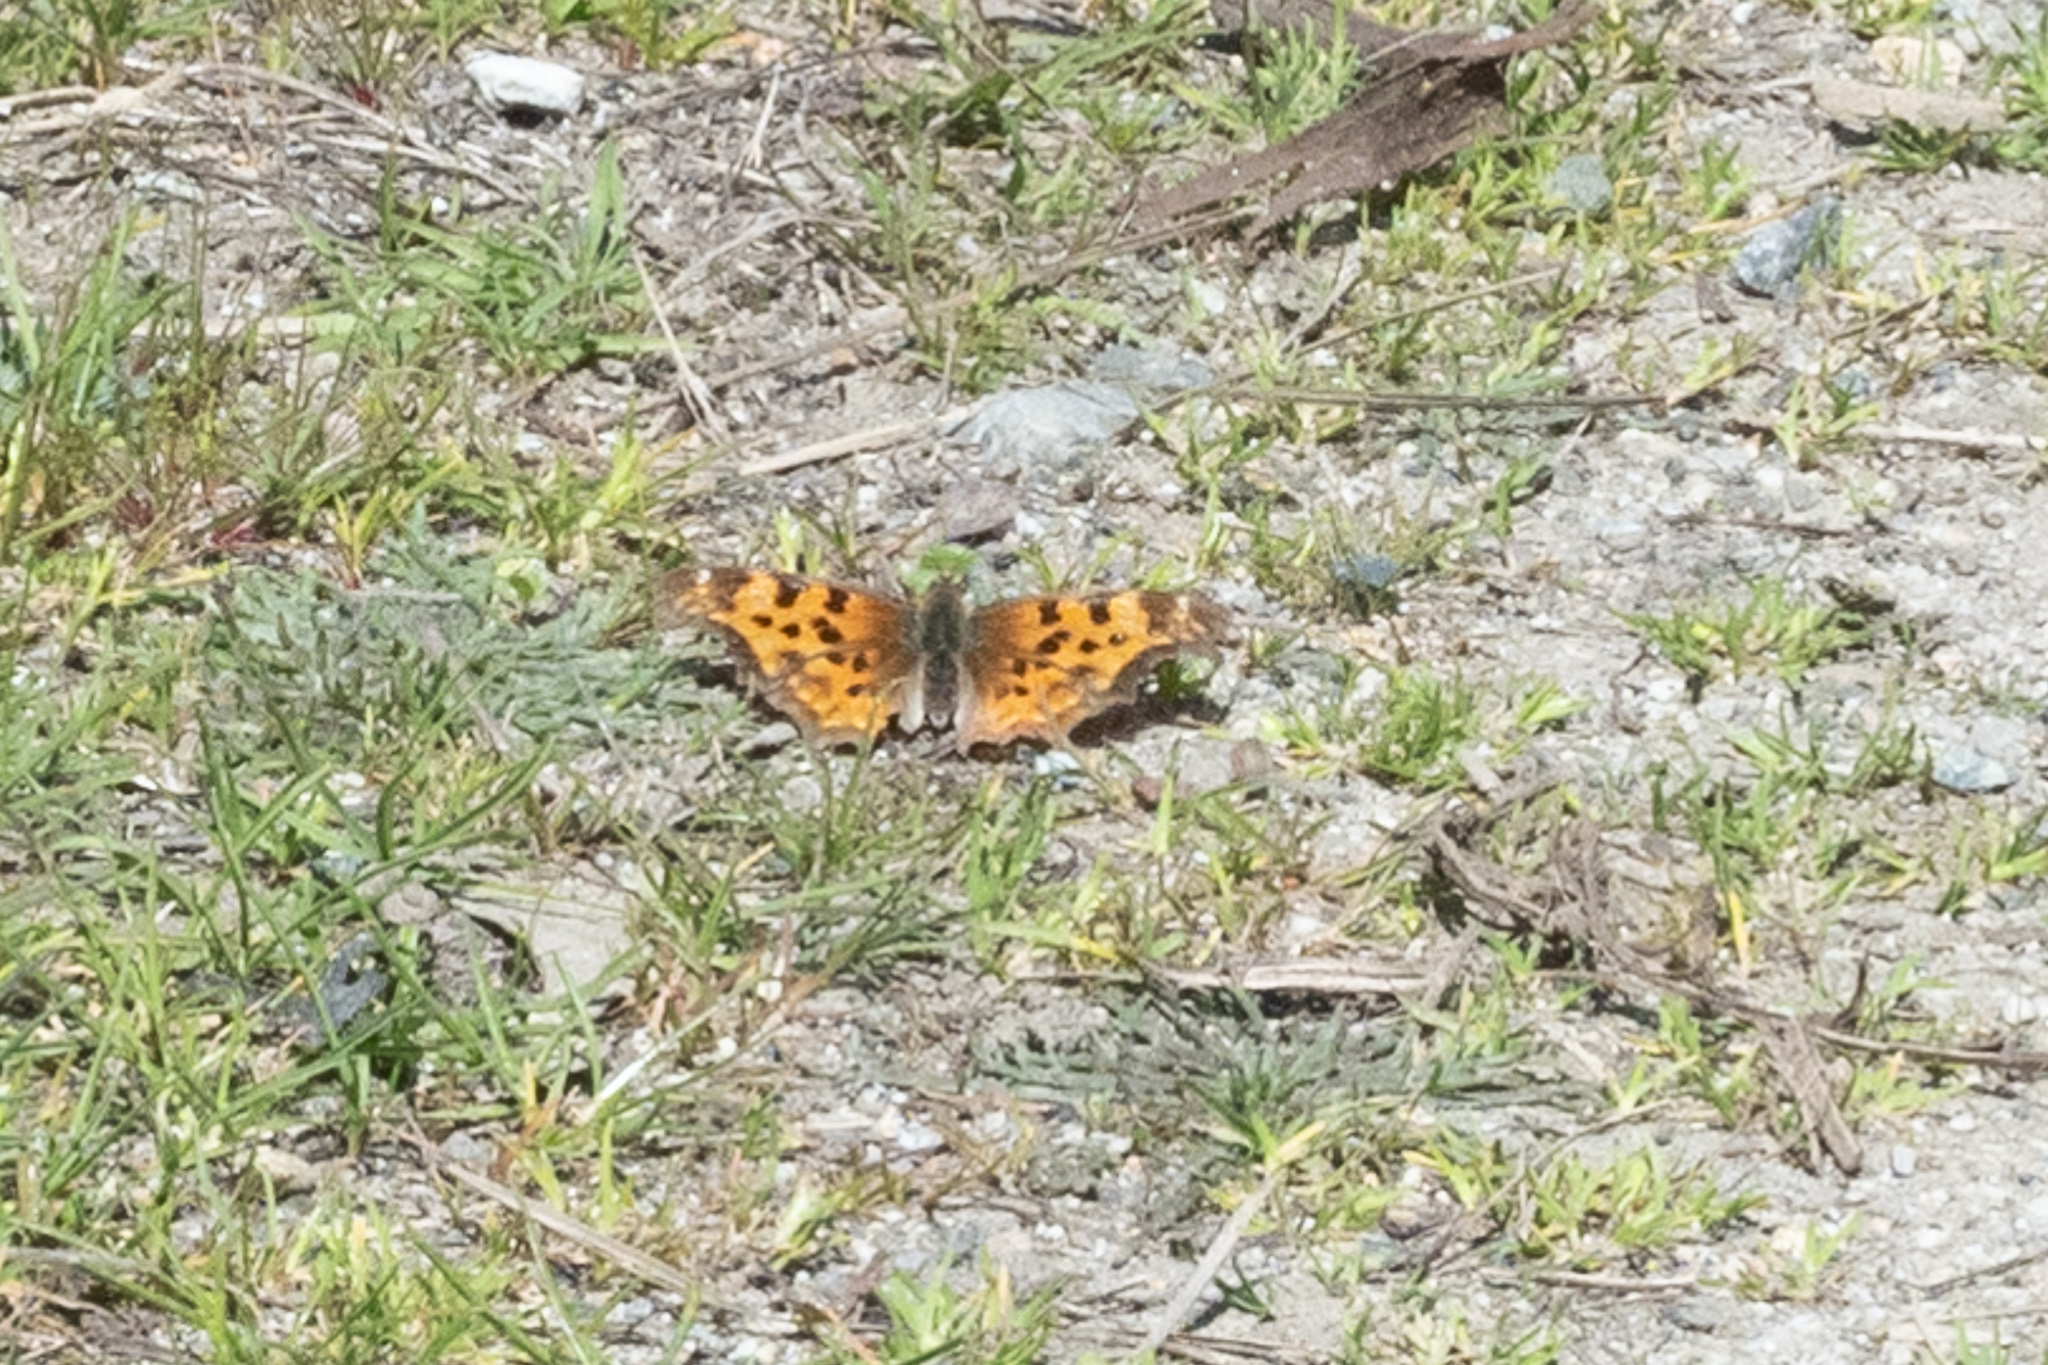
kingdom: Animalia
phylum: Arthropoda
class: Insecta
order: Lepidoptera
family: Nymphalidae
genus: Polygonia
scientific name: Polygonia satyrus
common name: Satyr angle wing
